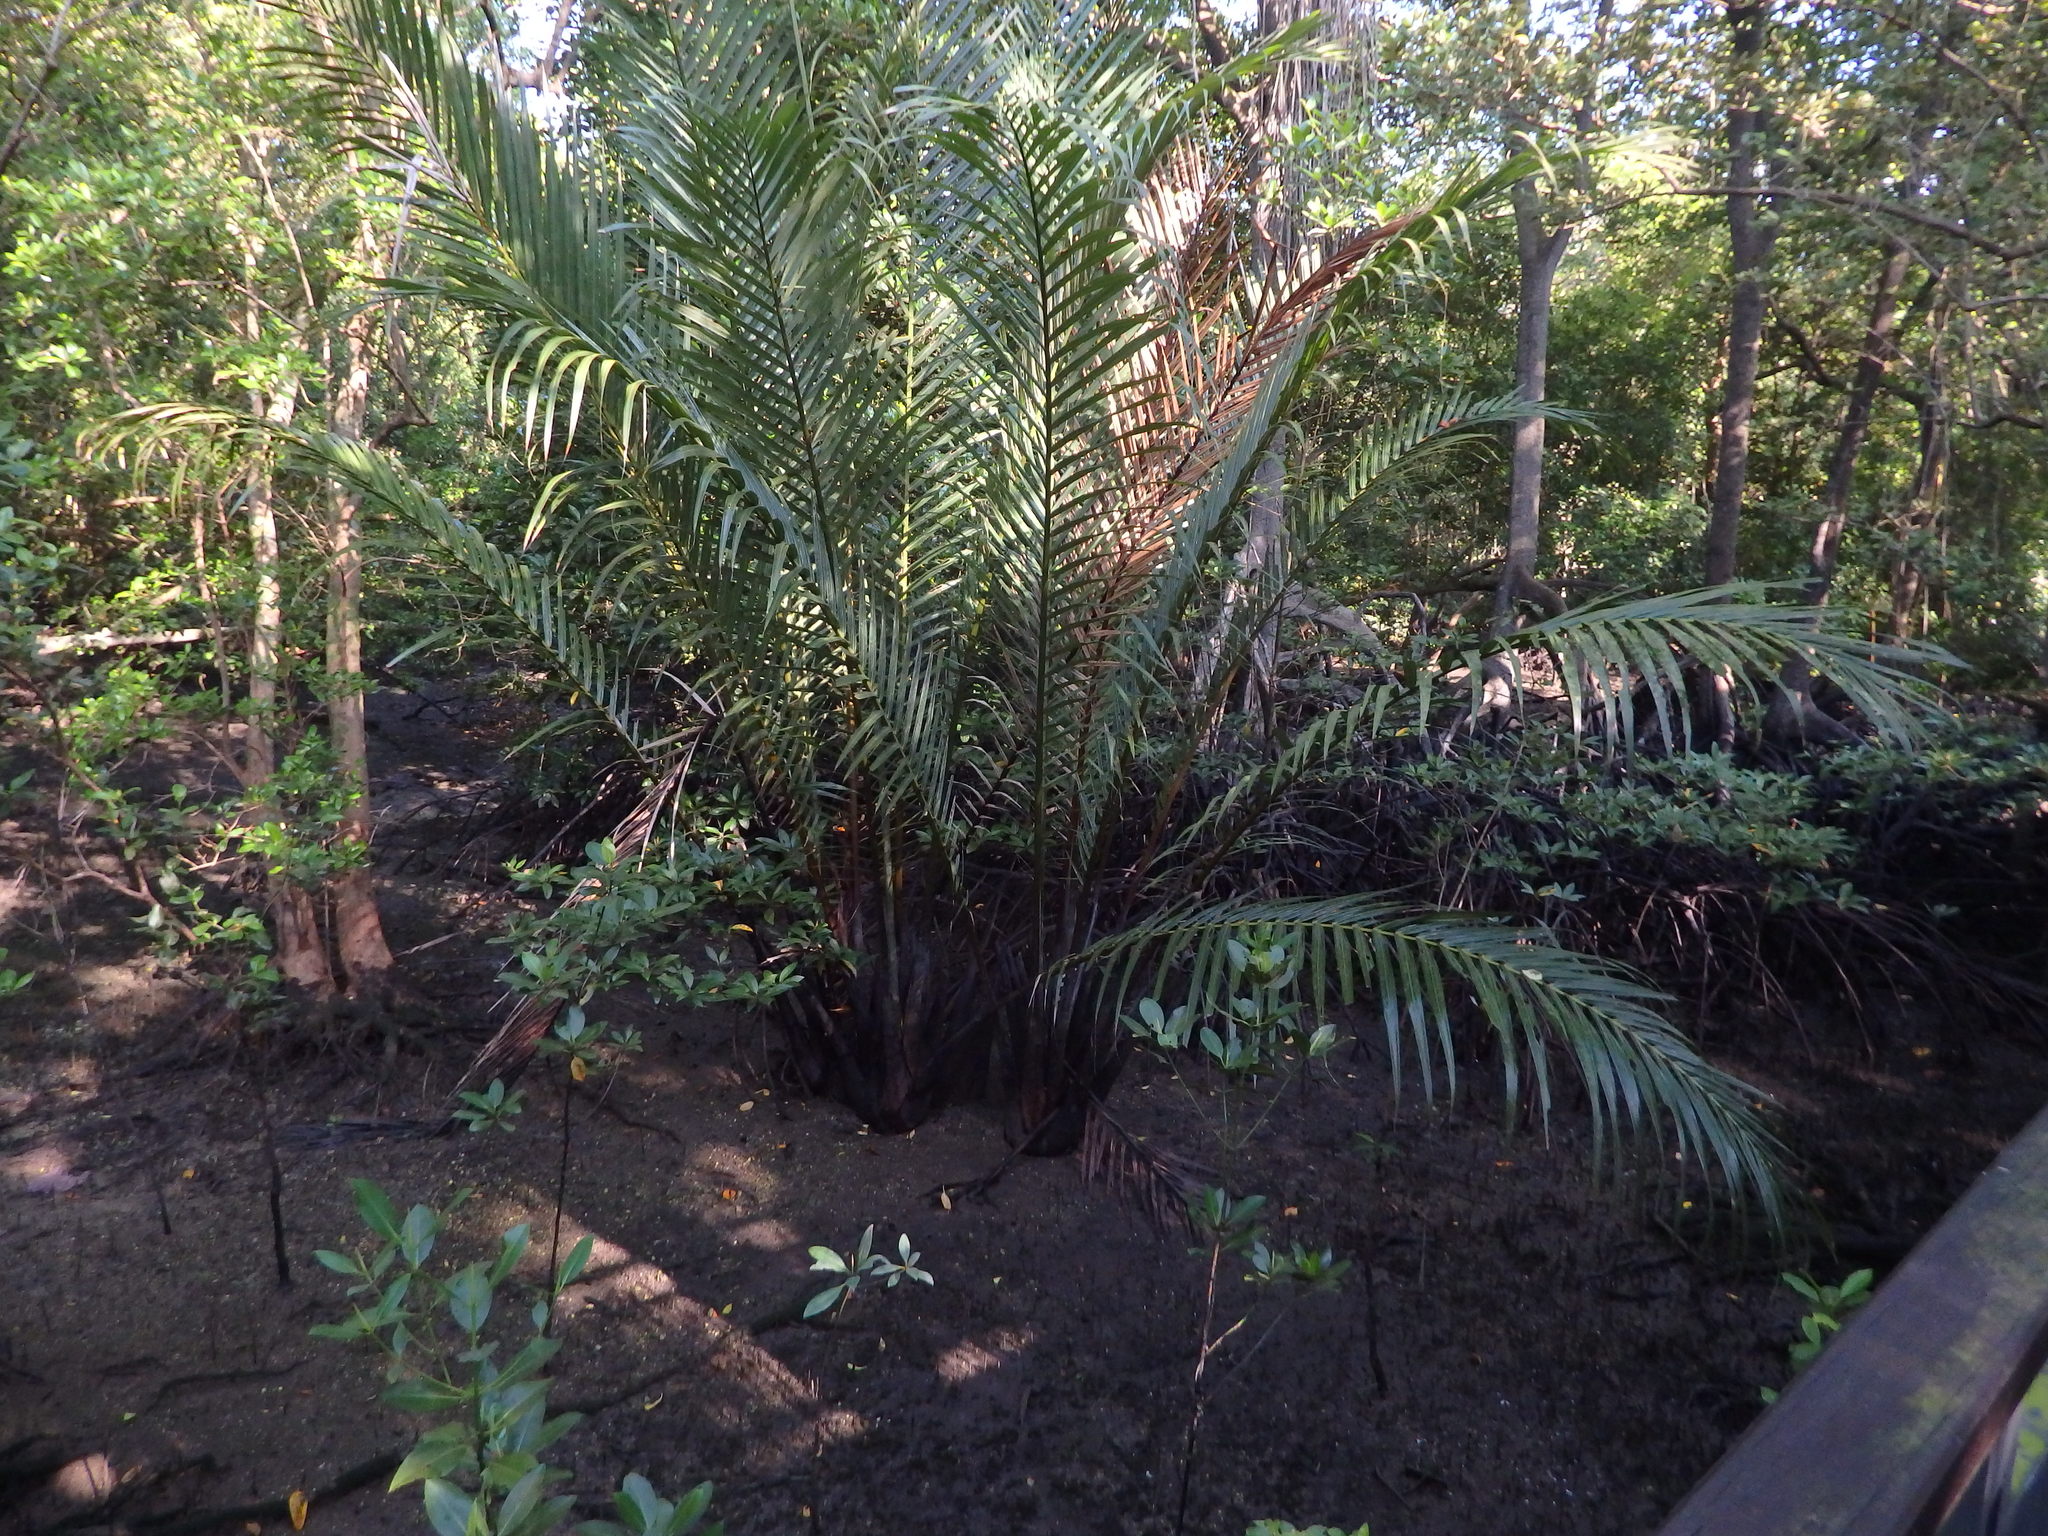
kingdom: Plantae
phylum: Tracheophyta
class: Liliopsida
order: Arecales
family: Arecaceae
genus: Nypa
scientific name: Nypa fruticans
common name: Mangrove palm
